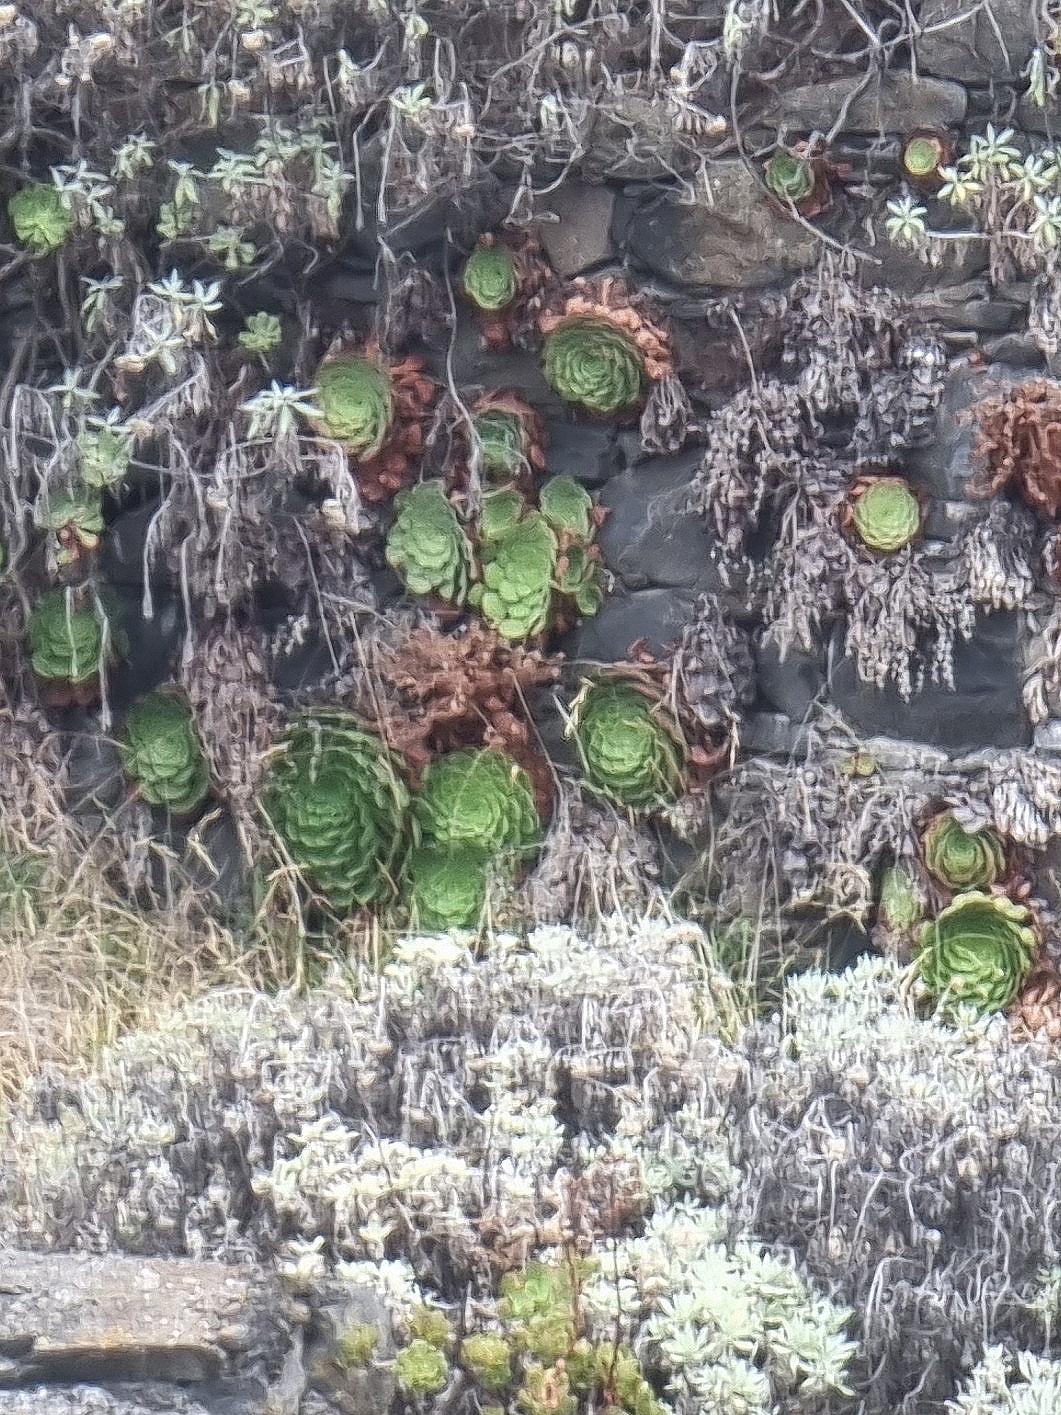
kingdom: Plantae
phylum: Tracheophyta
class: Magnoliopsida
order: Saxifragales
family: Crassulaceae
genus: Aeonium
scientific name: Aeonium glandulosum
